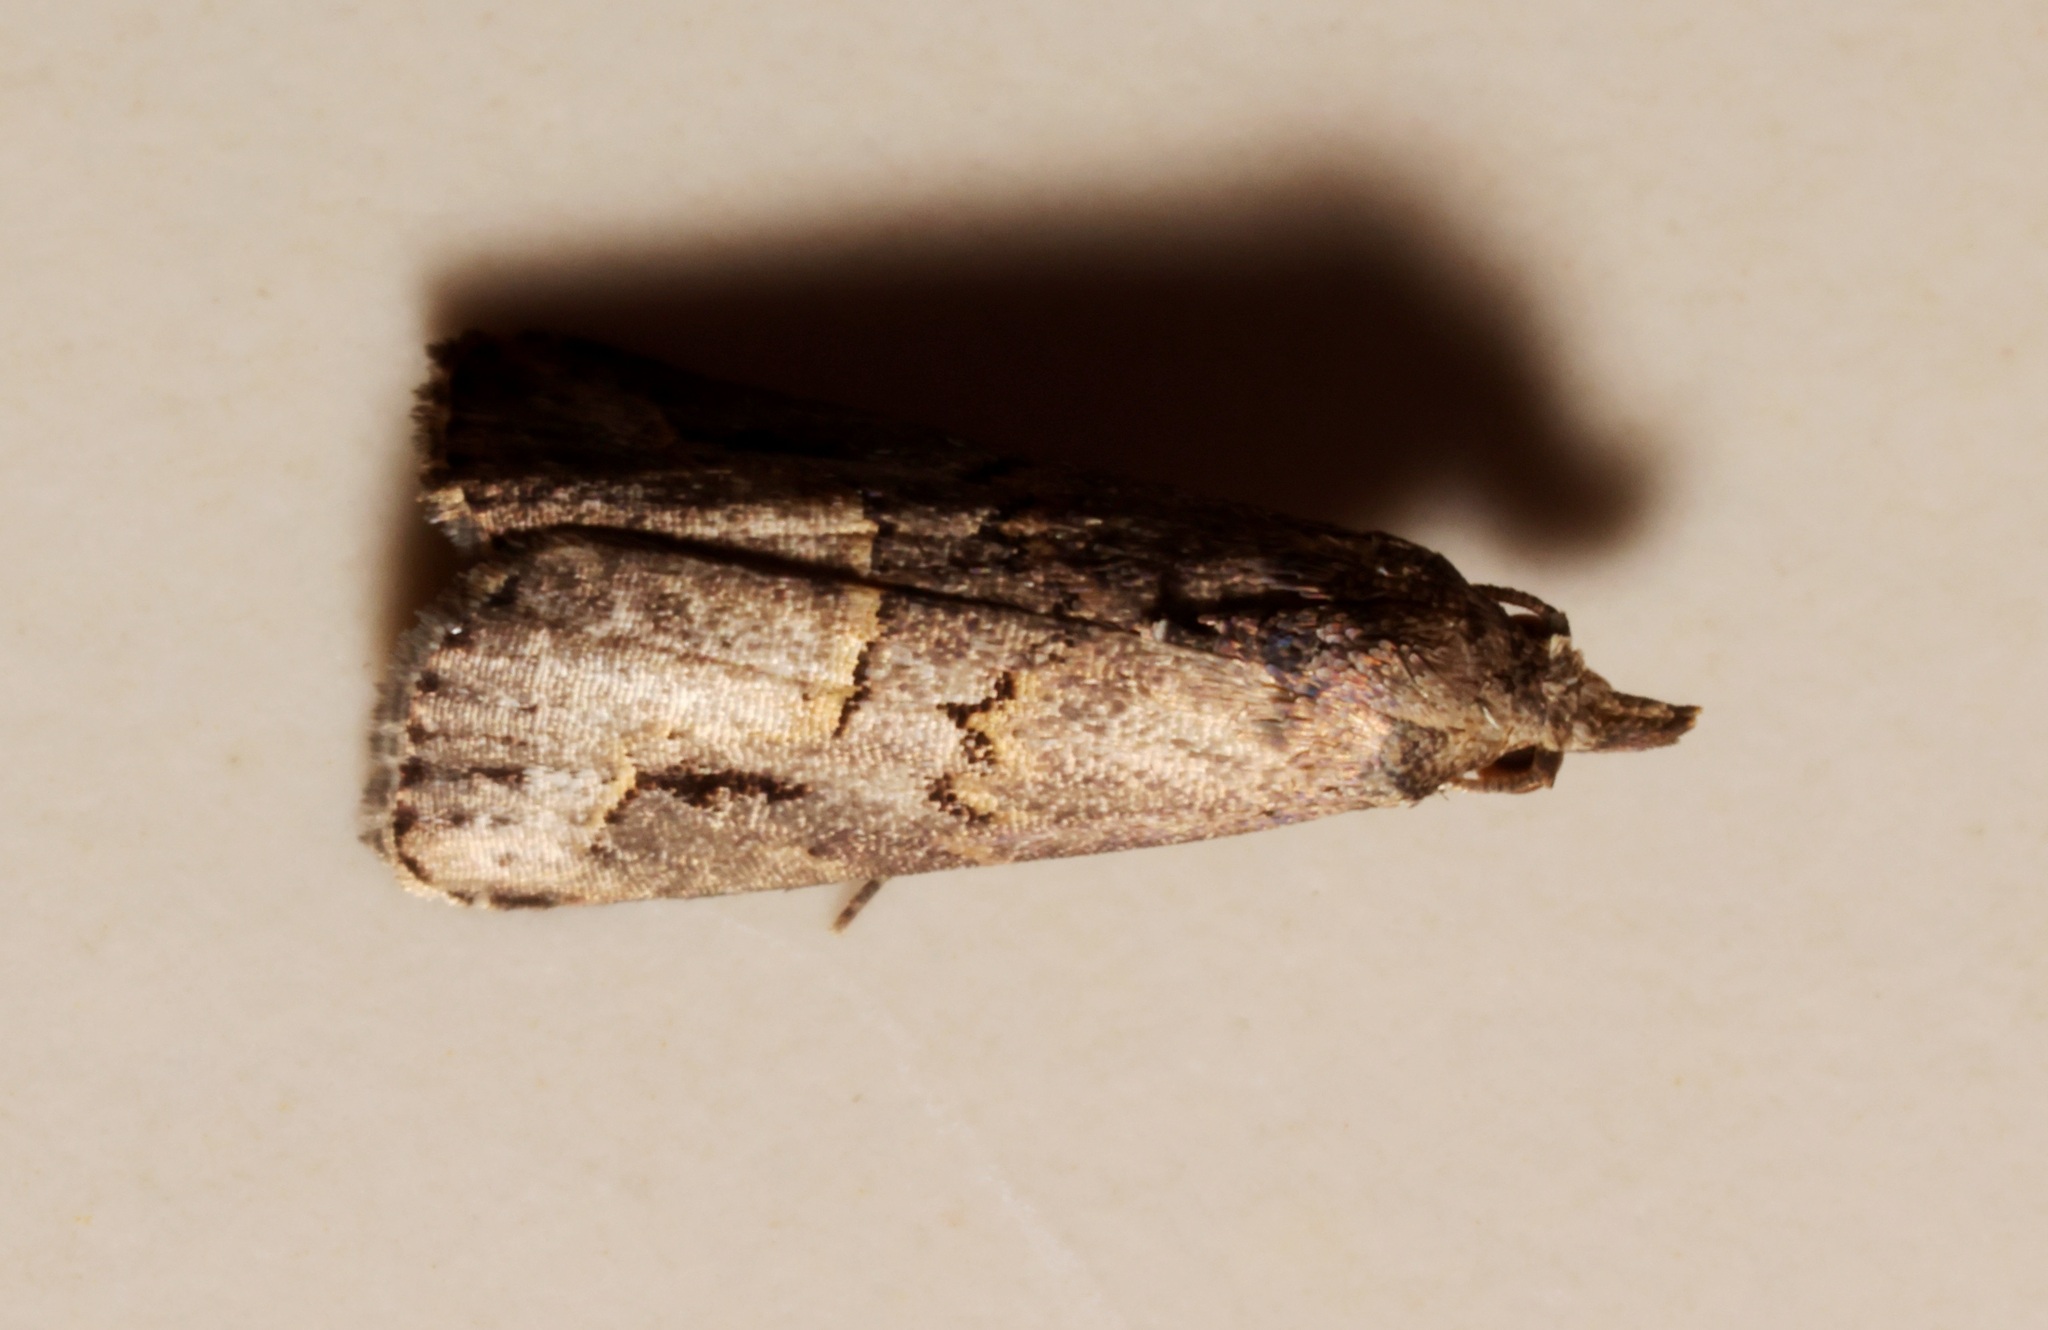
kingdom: Animalia
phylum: Arthropoda
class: Insecta
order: Lepidoptera
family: Erebidae
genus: Schrankia
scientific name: Schrankia costaestrigalis
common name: Pinion-streaked snout
